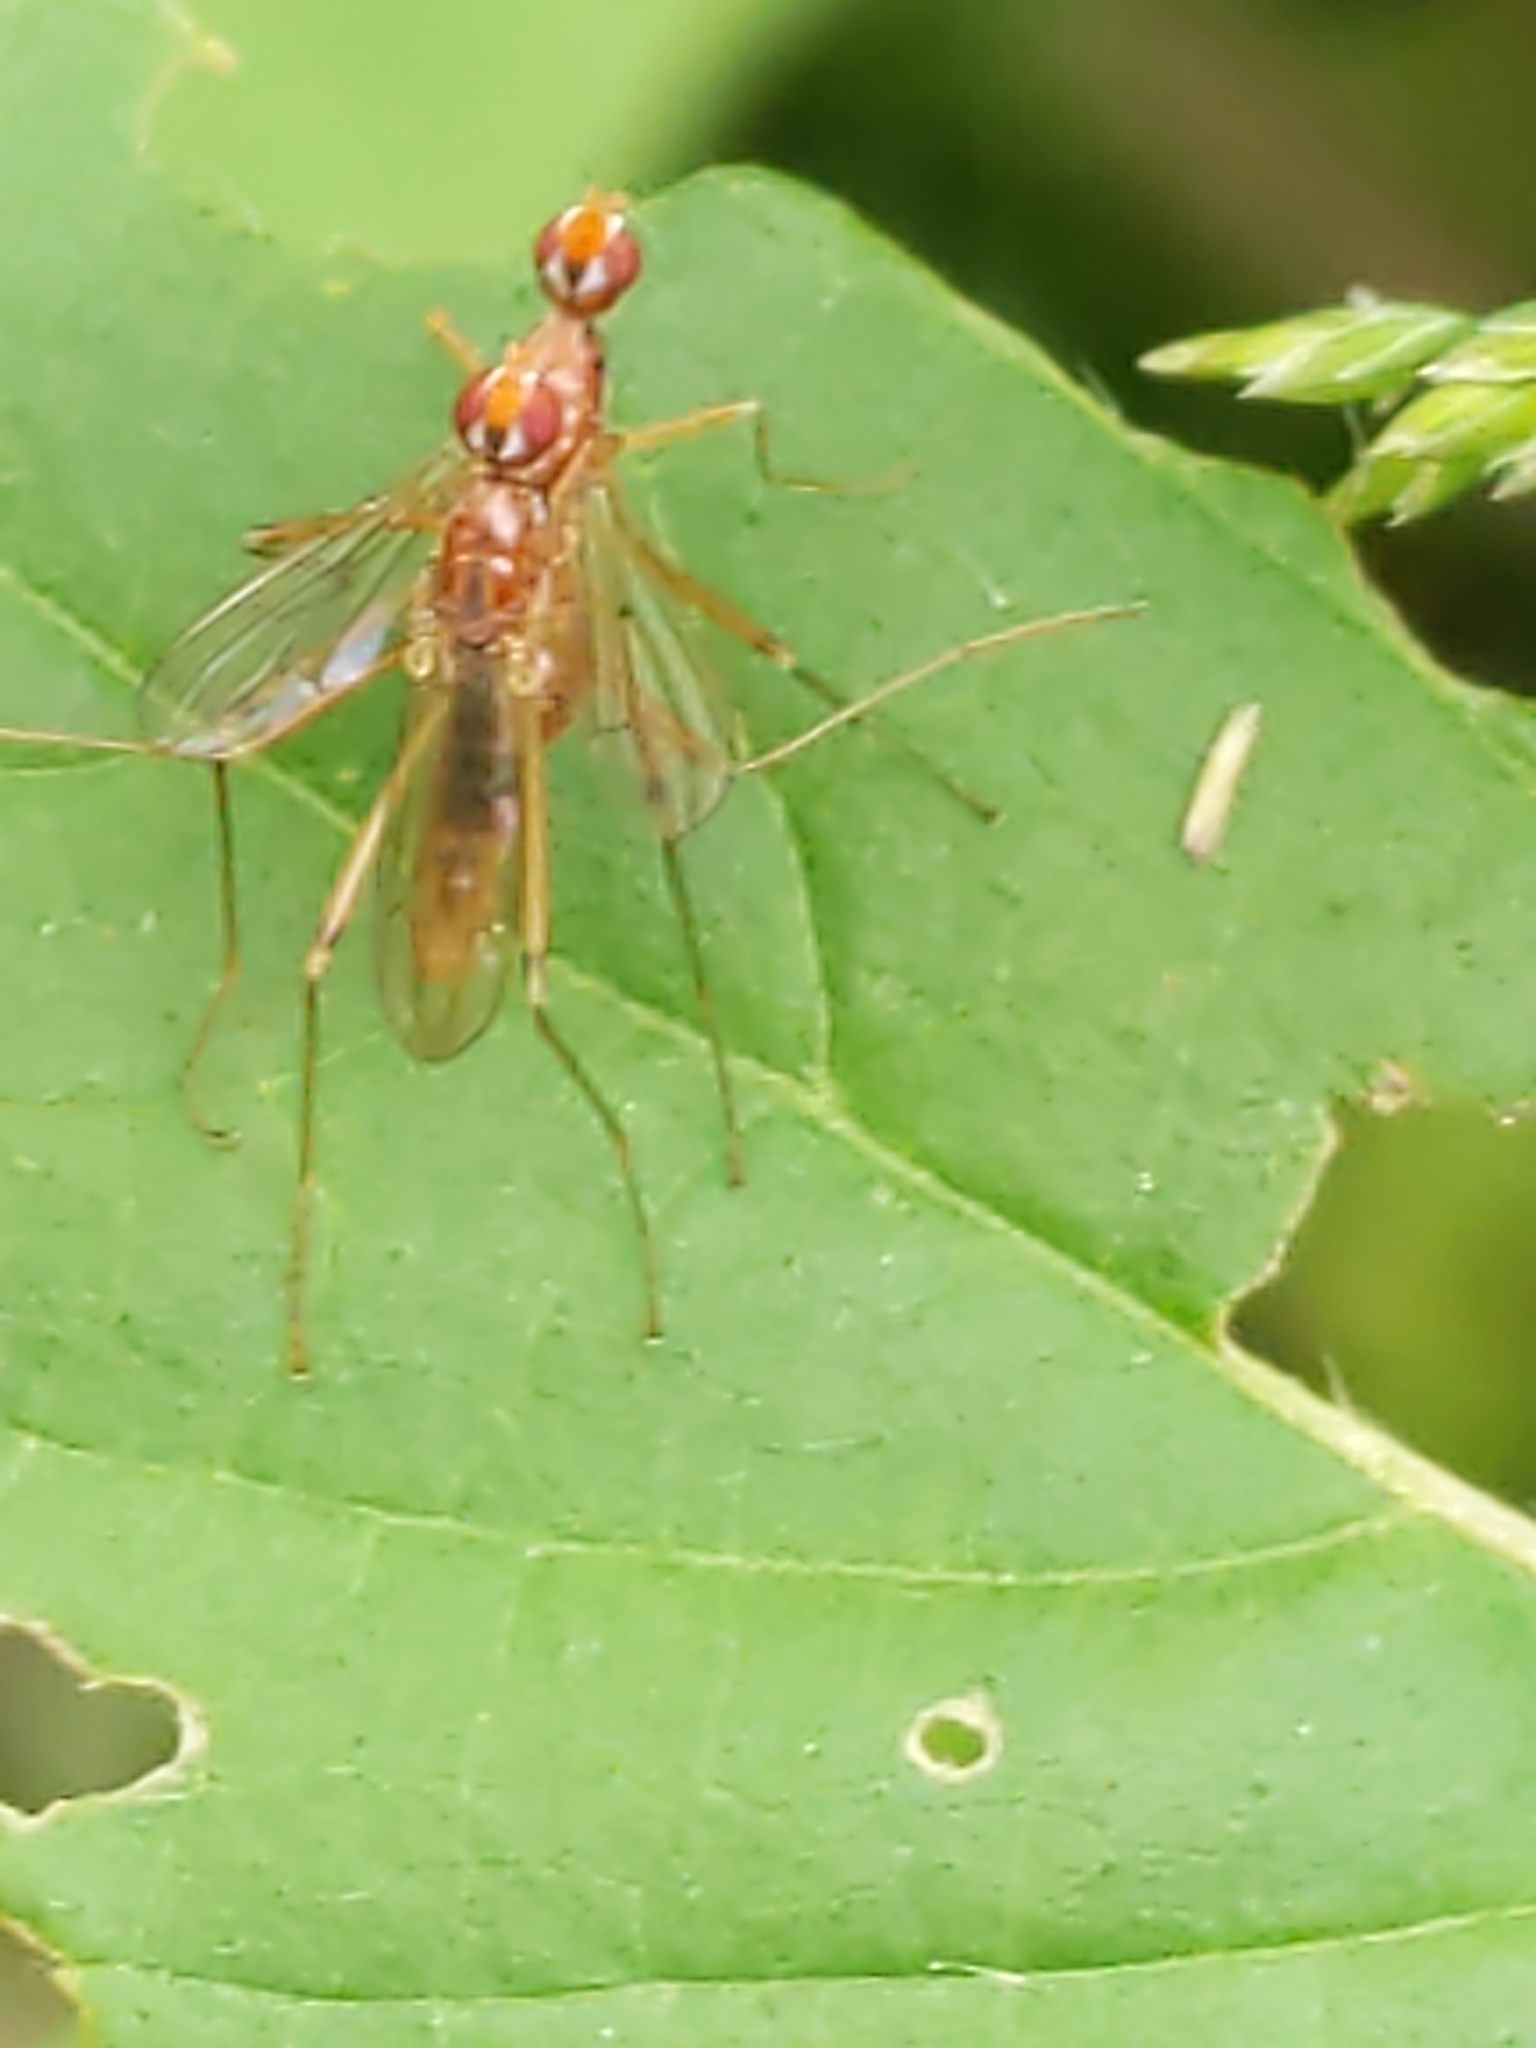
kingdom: Animalia
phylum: Arthropoda
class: Insecta
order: Diptera
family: Micropezidae
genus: Compsobata
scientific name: Compsobata univitta
